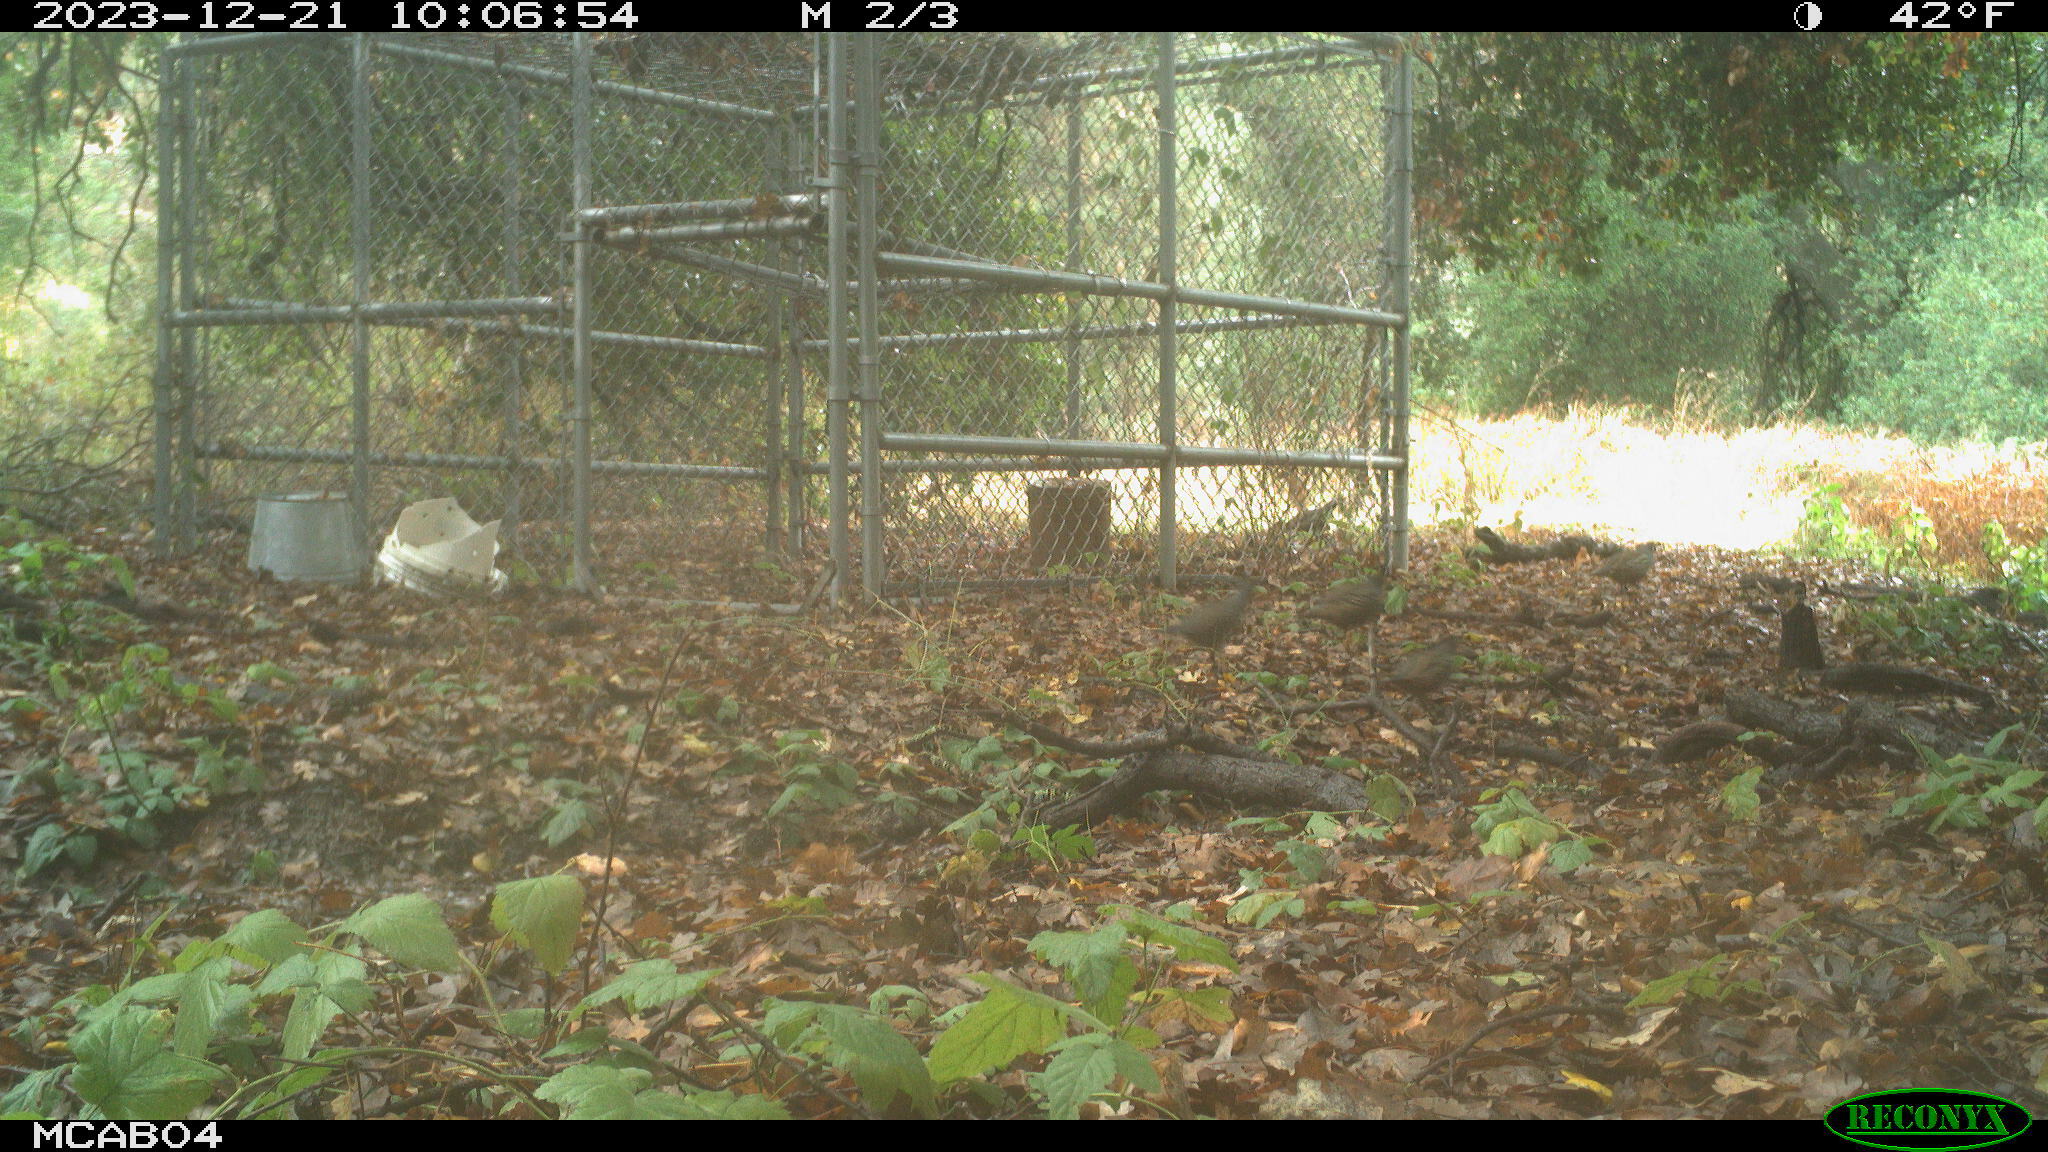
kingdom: Animalia
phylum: Chordata
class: Aves
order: Galliformes
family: Odontophoridae
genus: Callipepla
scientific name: Callipepla californica
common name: California quail
